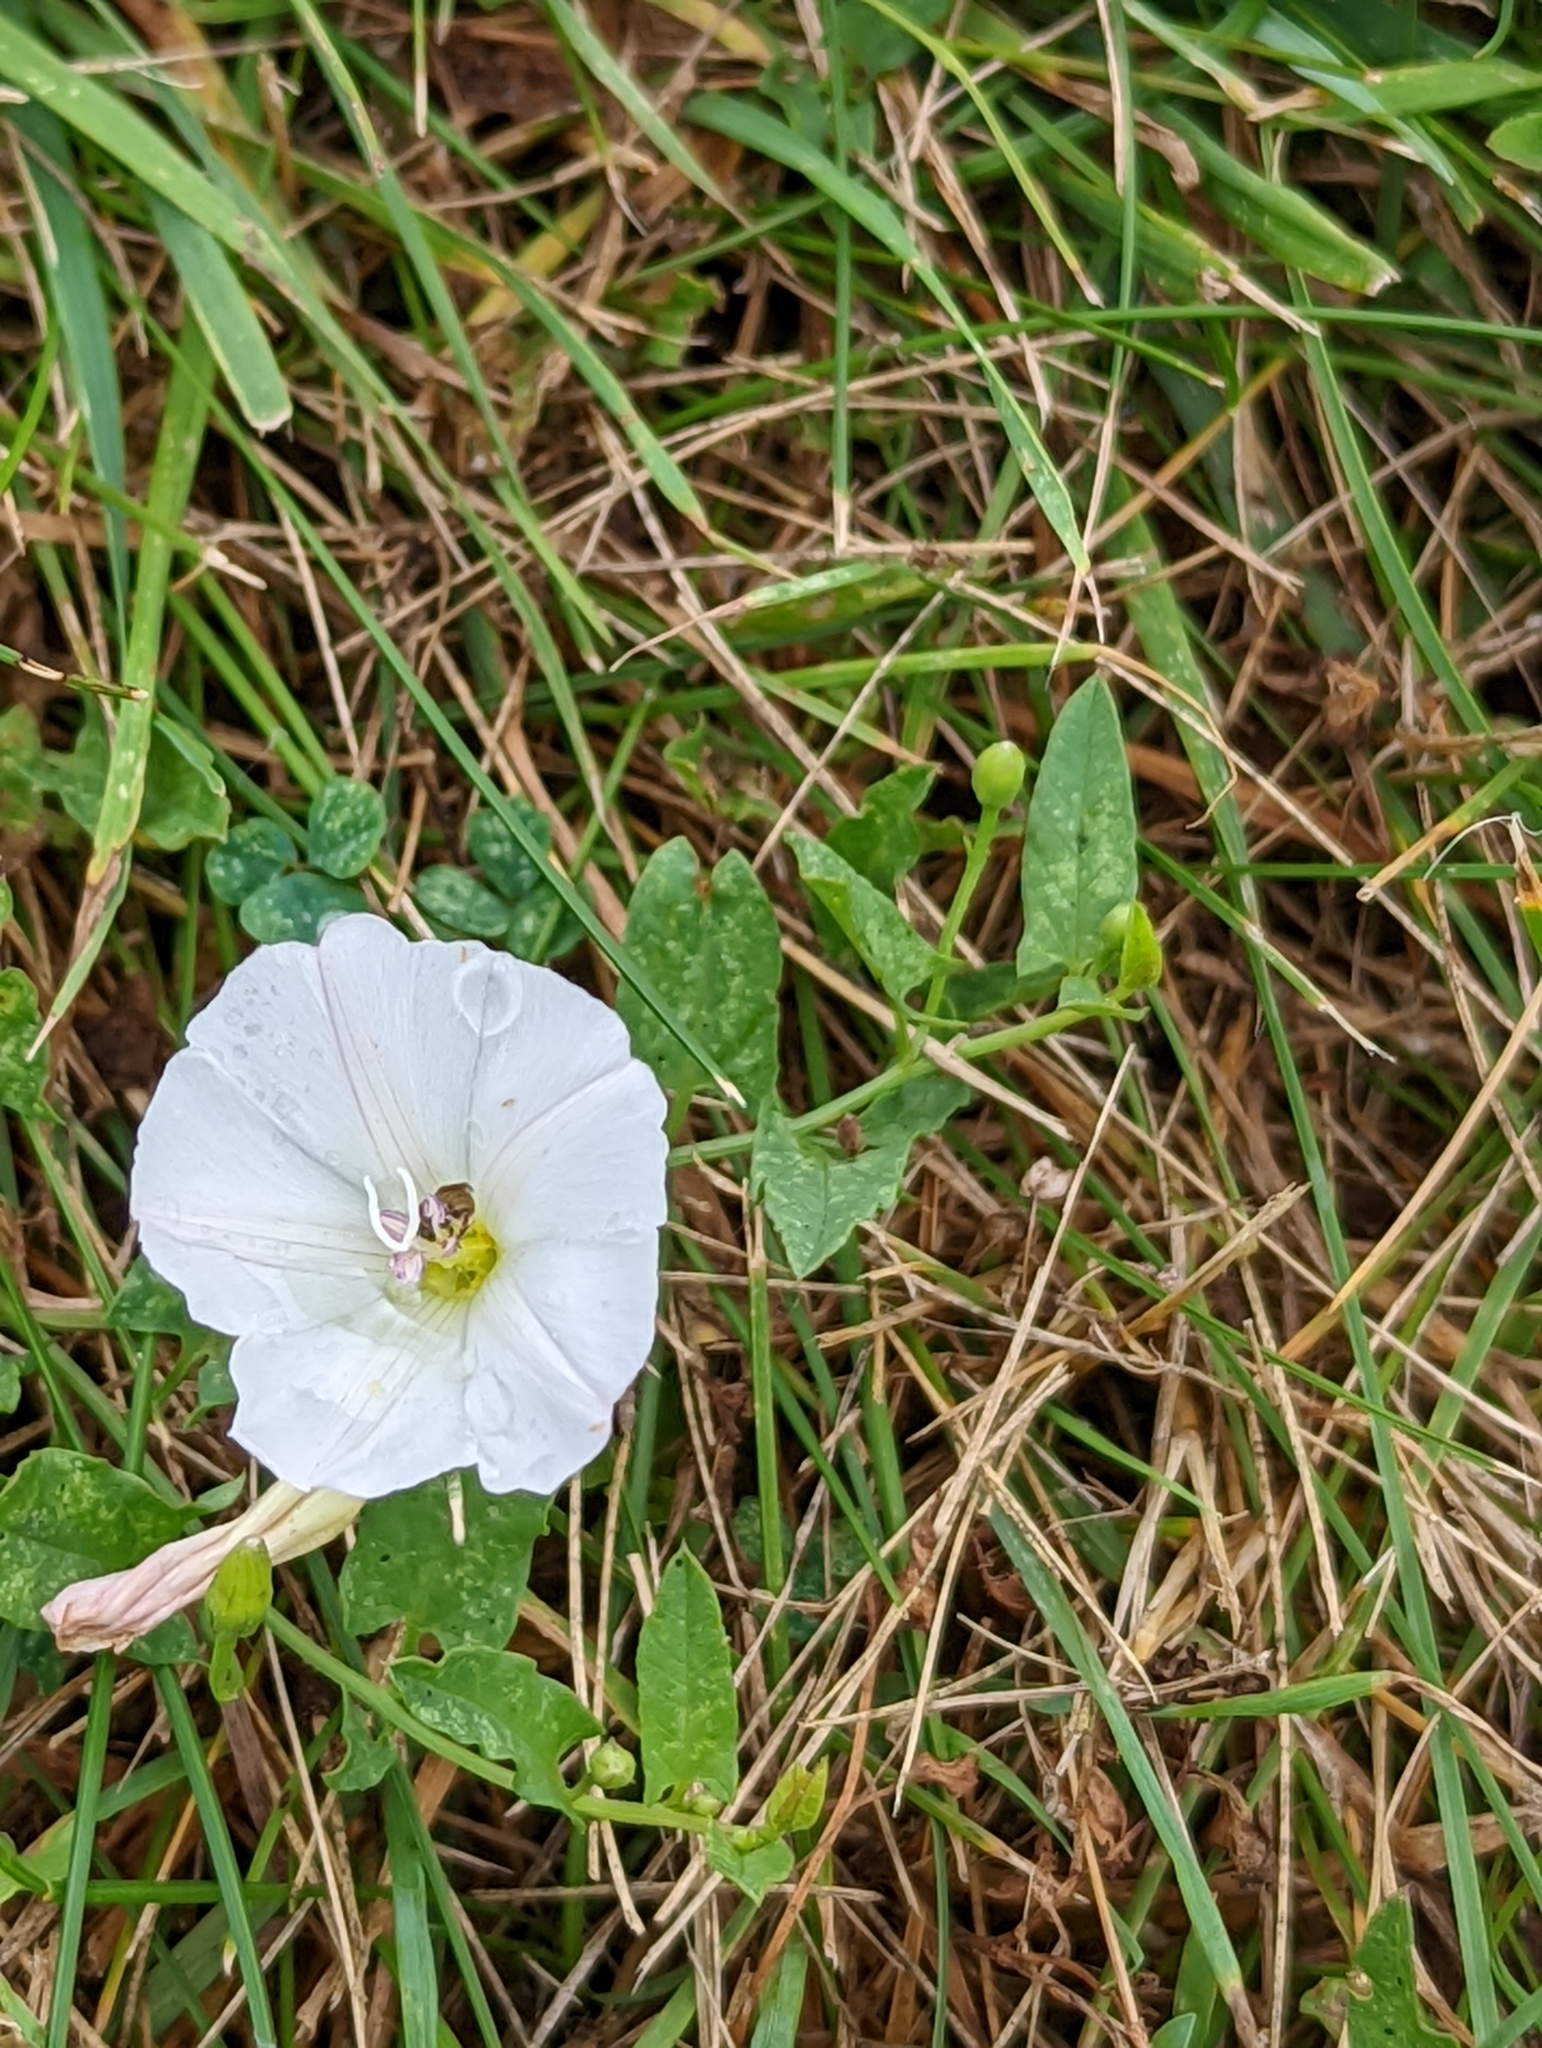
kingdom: Plantae
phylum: Tracheophyta
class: Magnoliopsida
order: Solanales
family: Convolvulaceae
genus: Convolvulus
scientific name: Convolvulus arvensis
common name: Field bindweed
